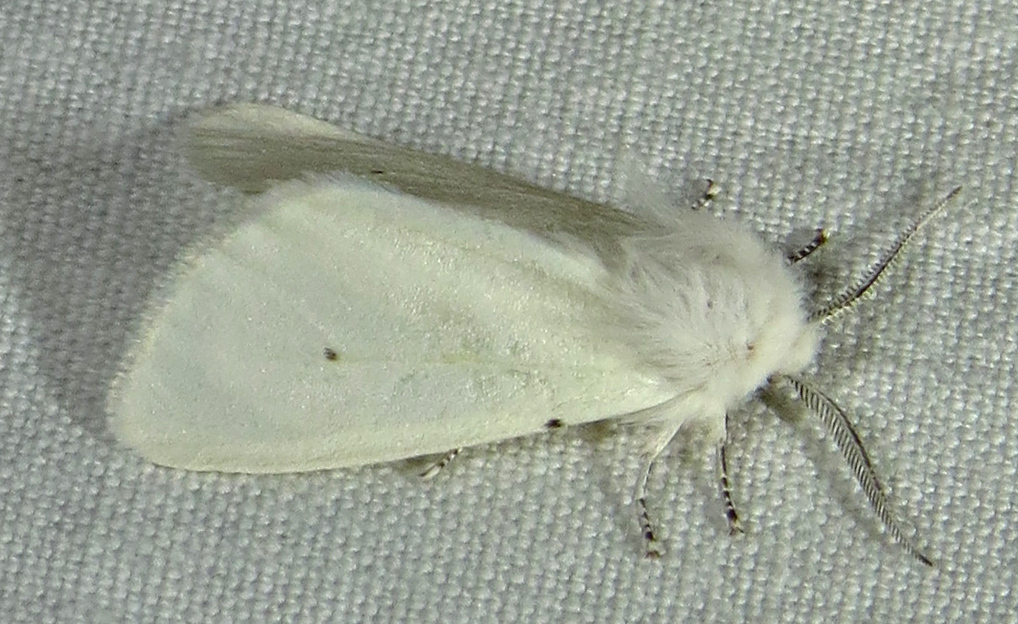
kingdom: Animalia
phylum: Arthropoda
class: Insecta
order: Lepidoptera
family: Erebidae
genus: Hyphantria
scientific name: Hyphantria cunea
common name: American white moth
